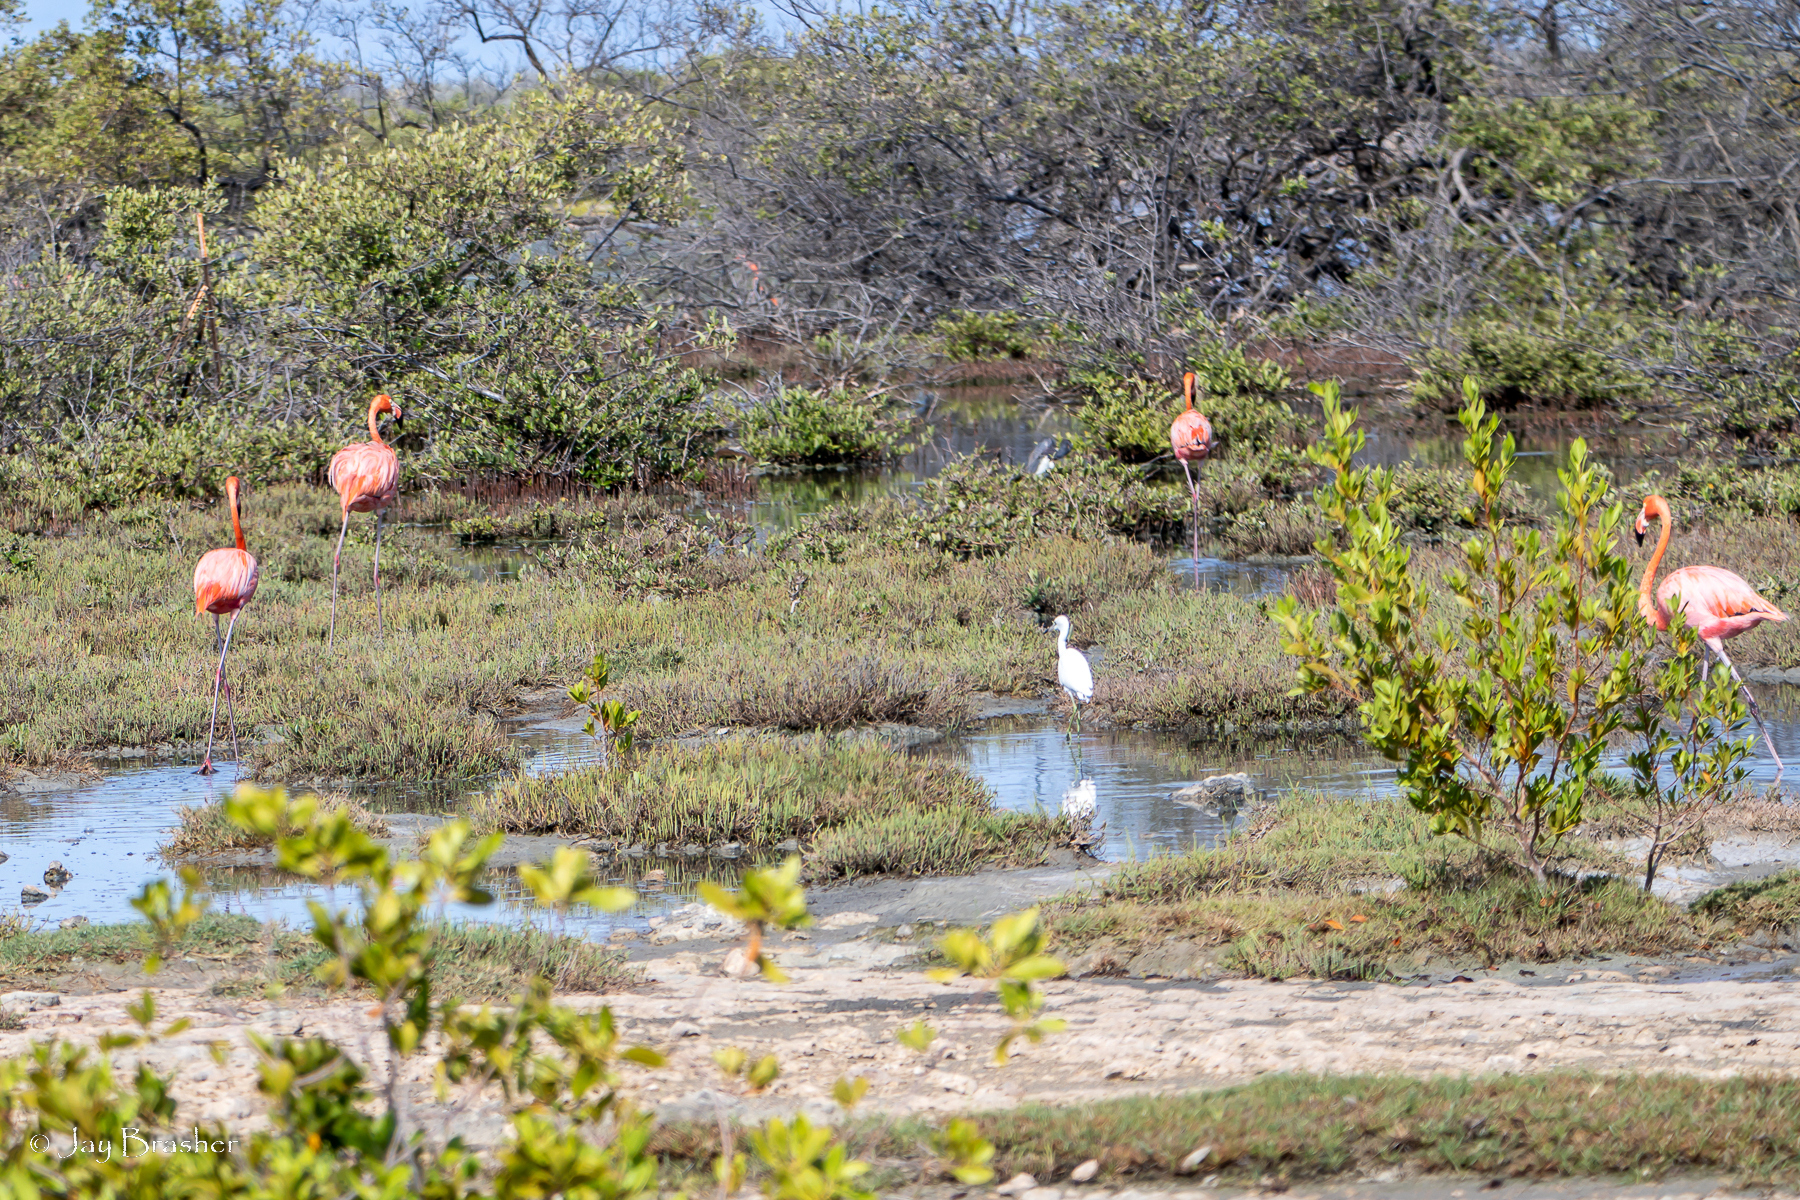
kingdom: Animalia
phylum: Chordata
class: Aves
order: Phoenicopteriformes
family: Phoenicopteridae
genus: Phoenicopterus
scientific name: Phoenicopterus ruber
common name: American flamingo
